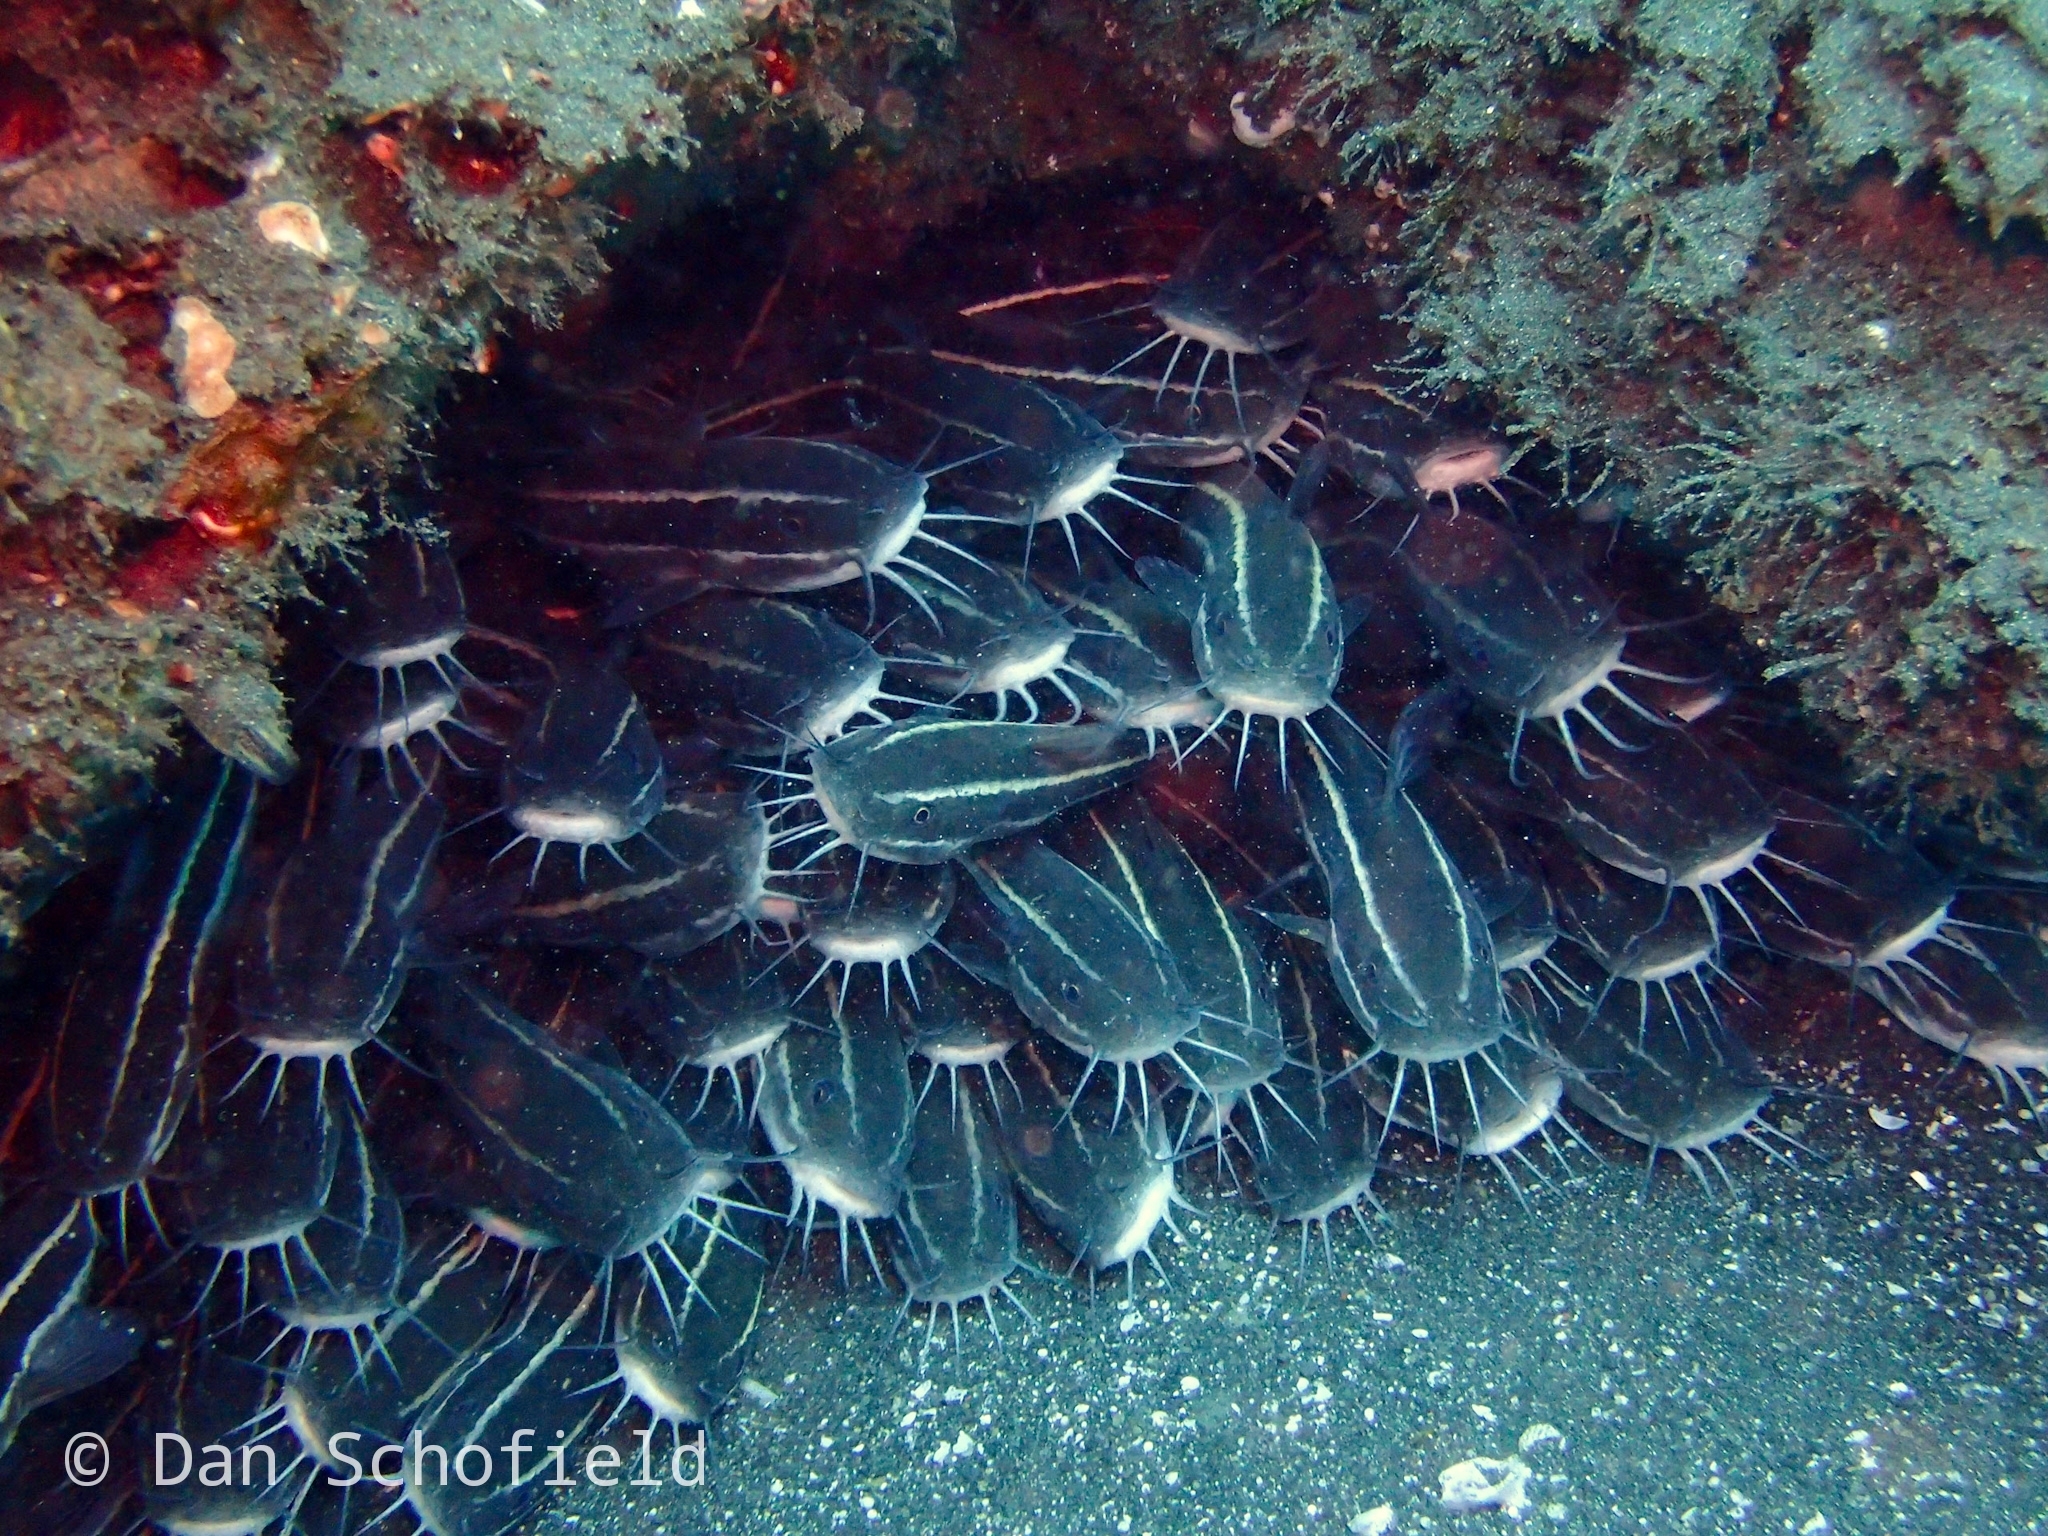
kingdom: Animalia
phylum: Chordata
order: Siluriformes
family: Plotosidae
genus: Plotosus
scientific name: Plotosus lineatus
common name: Striped eel catfish
